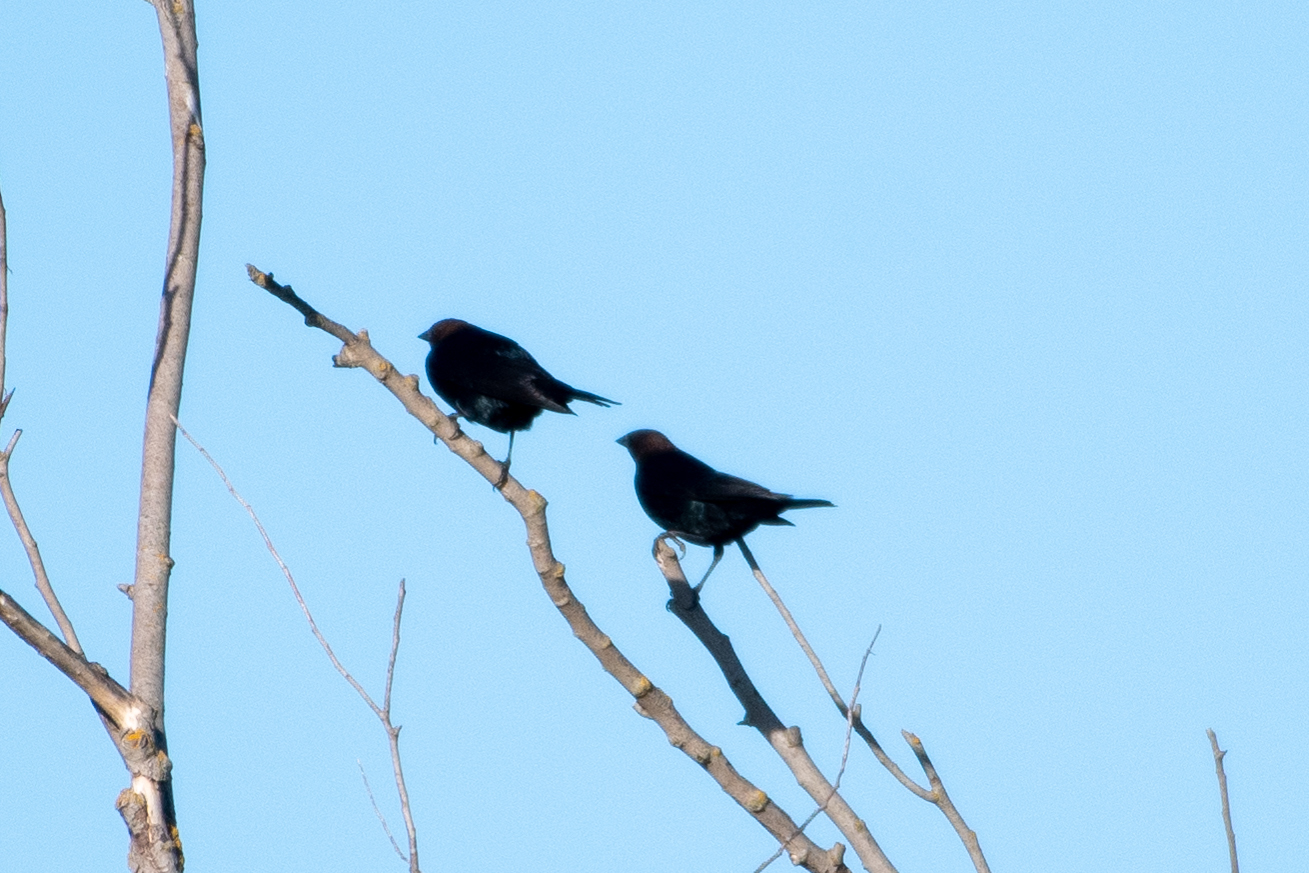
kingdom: Animalia
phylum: Chordata
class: Aves
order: Passeriformes
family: Icteridae
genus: Molothrus
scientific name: Molothrus ater
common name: Brown-headed cowbird
